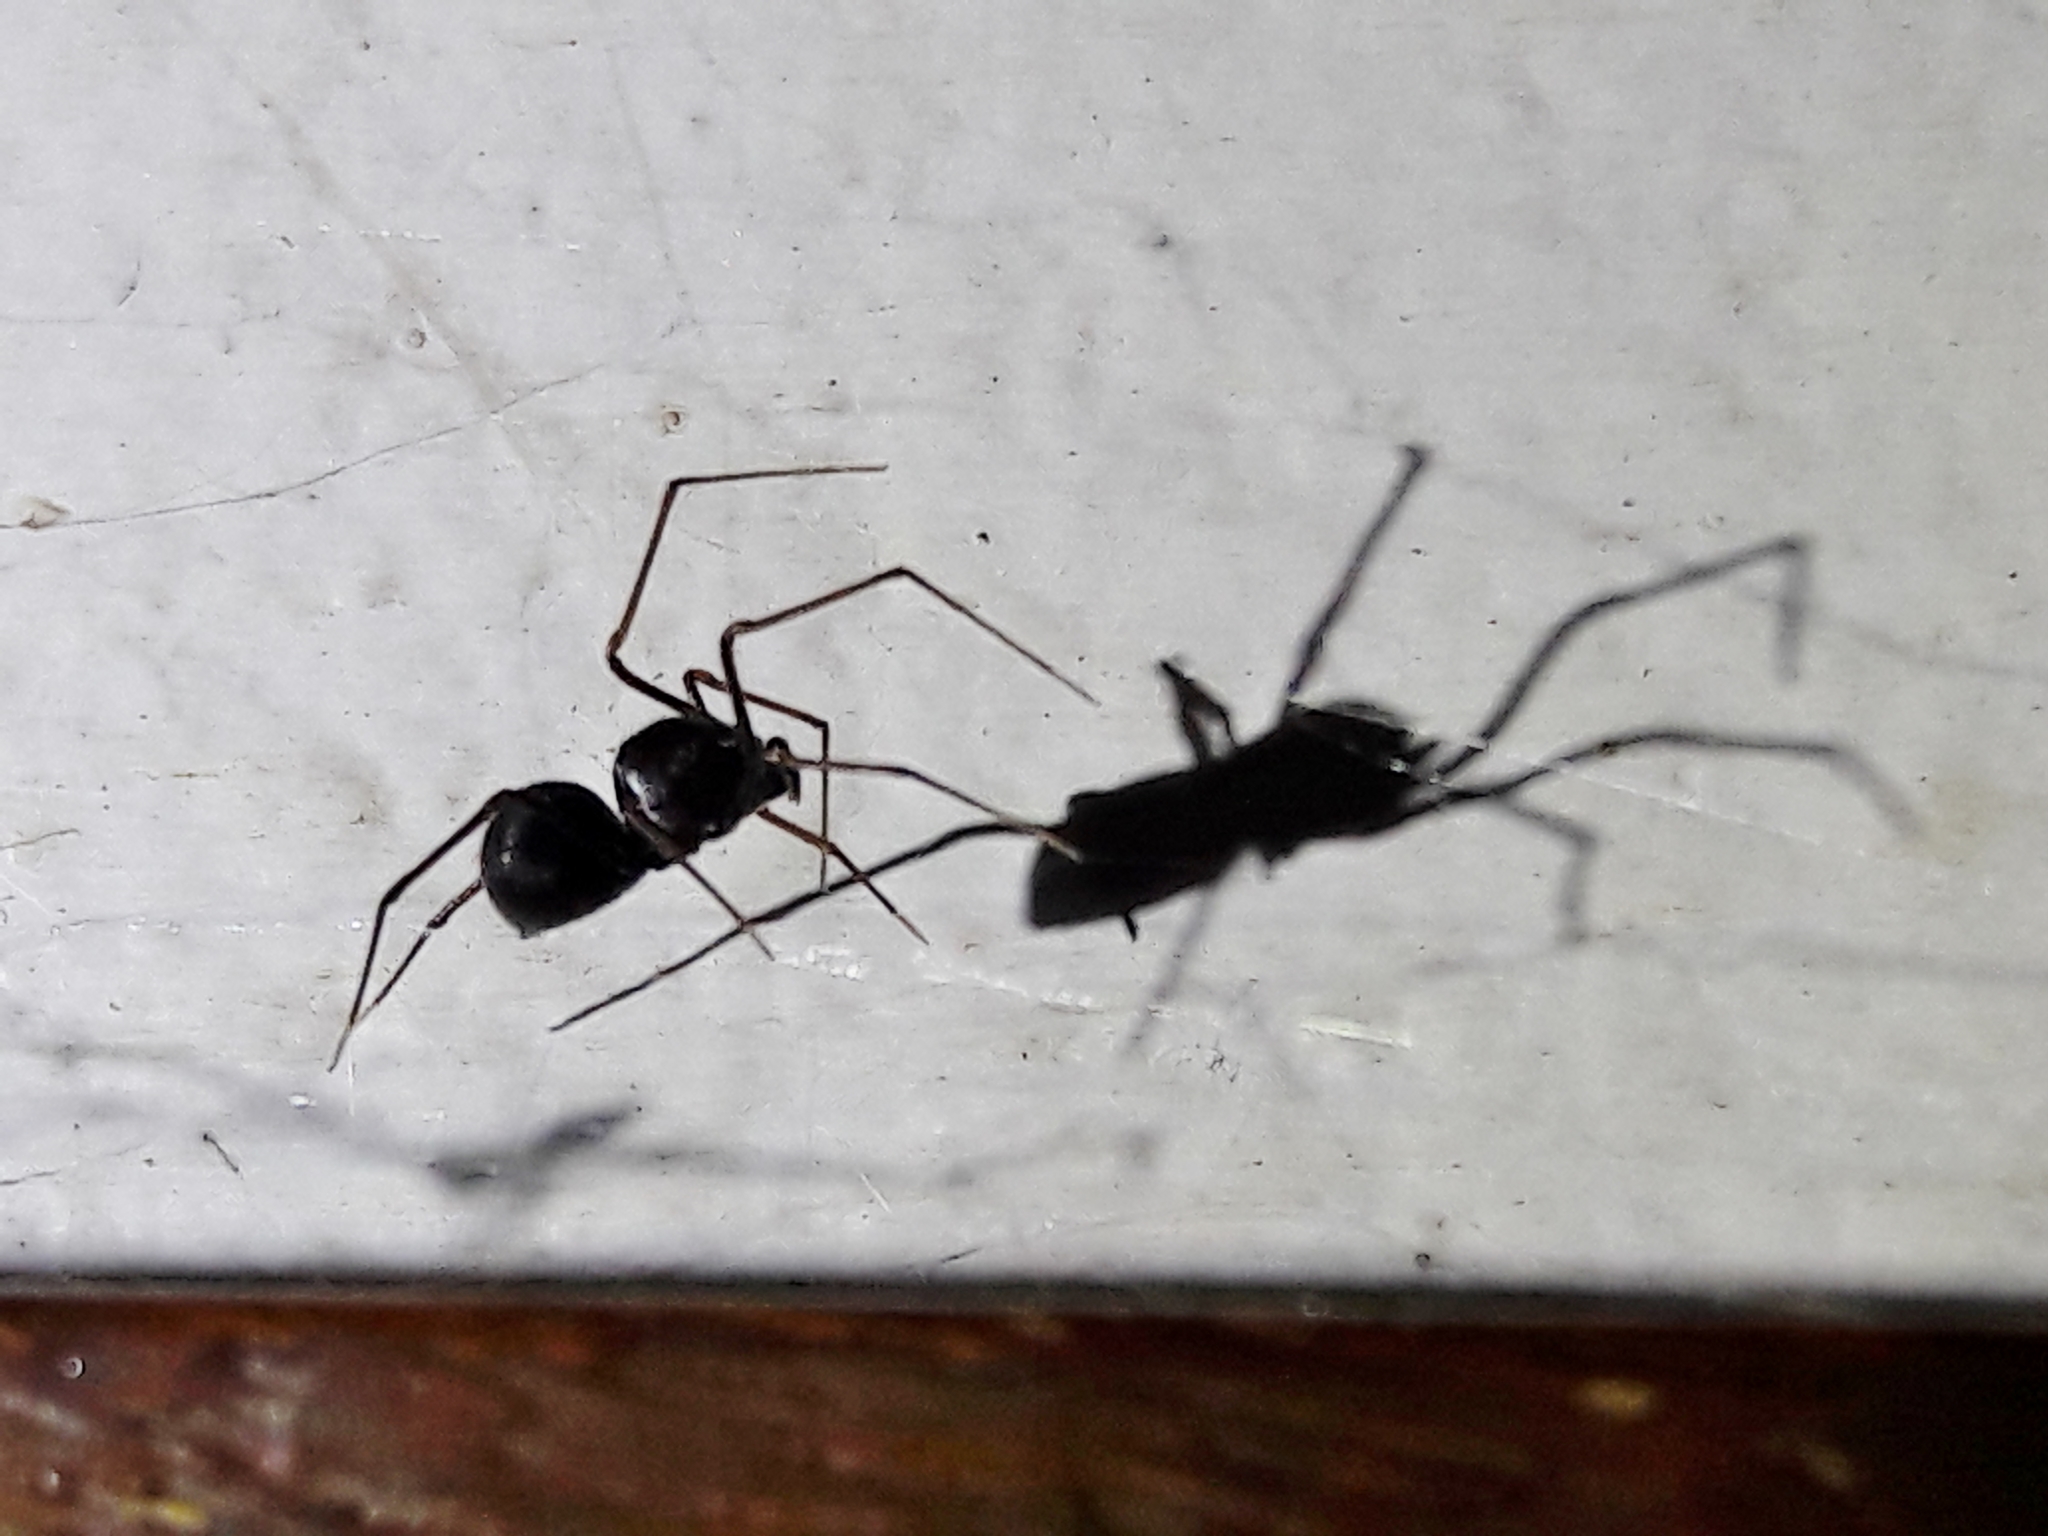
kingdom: Animalia
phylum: Arthropoda
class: Arachnida
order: Araneae
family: Scytodidae
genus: Scytodes
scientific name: Scytodes fusca
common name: Spitting spiders
